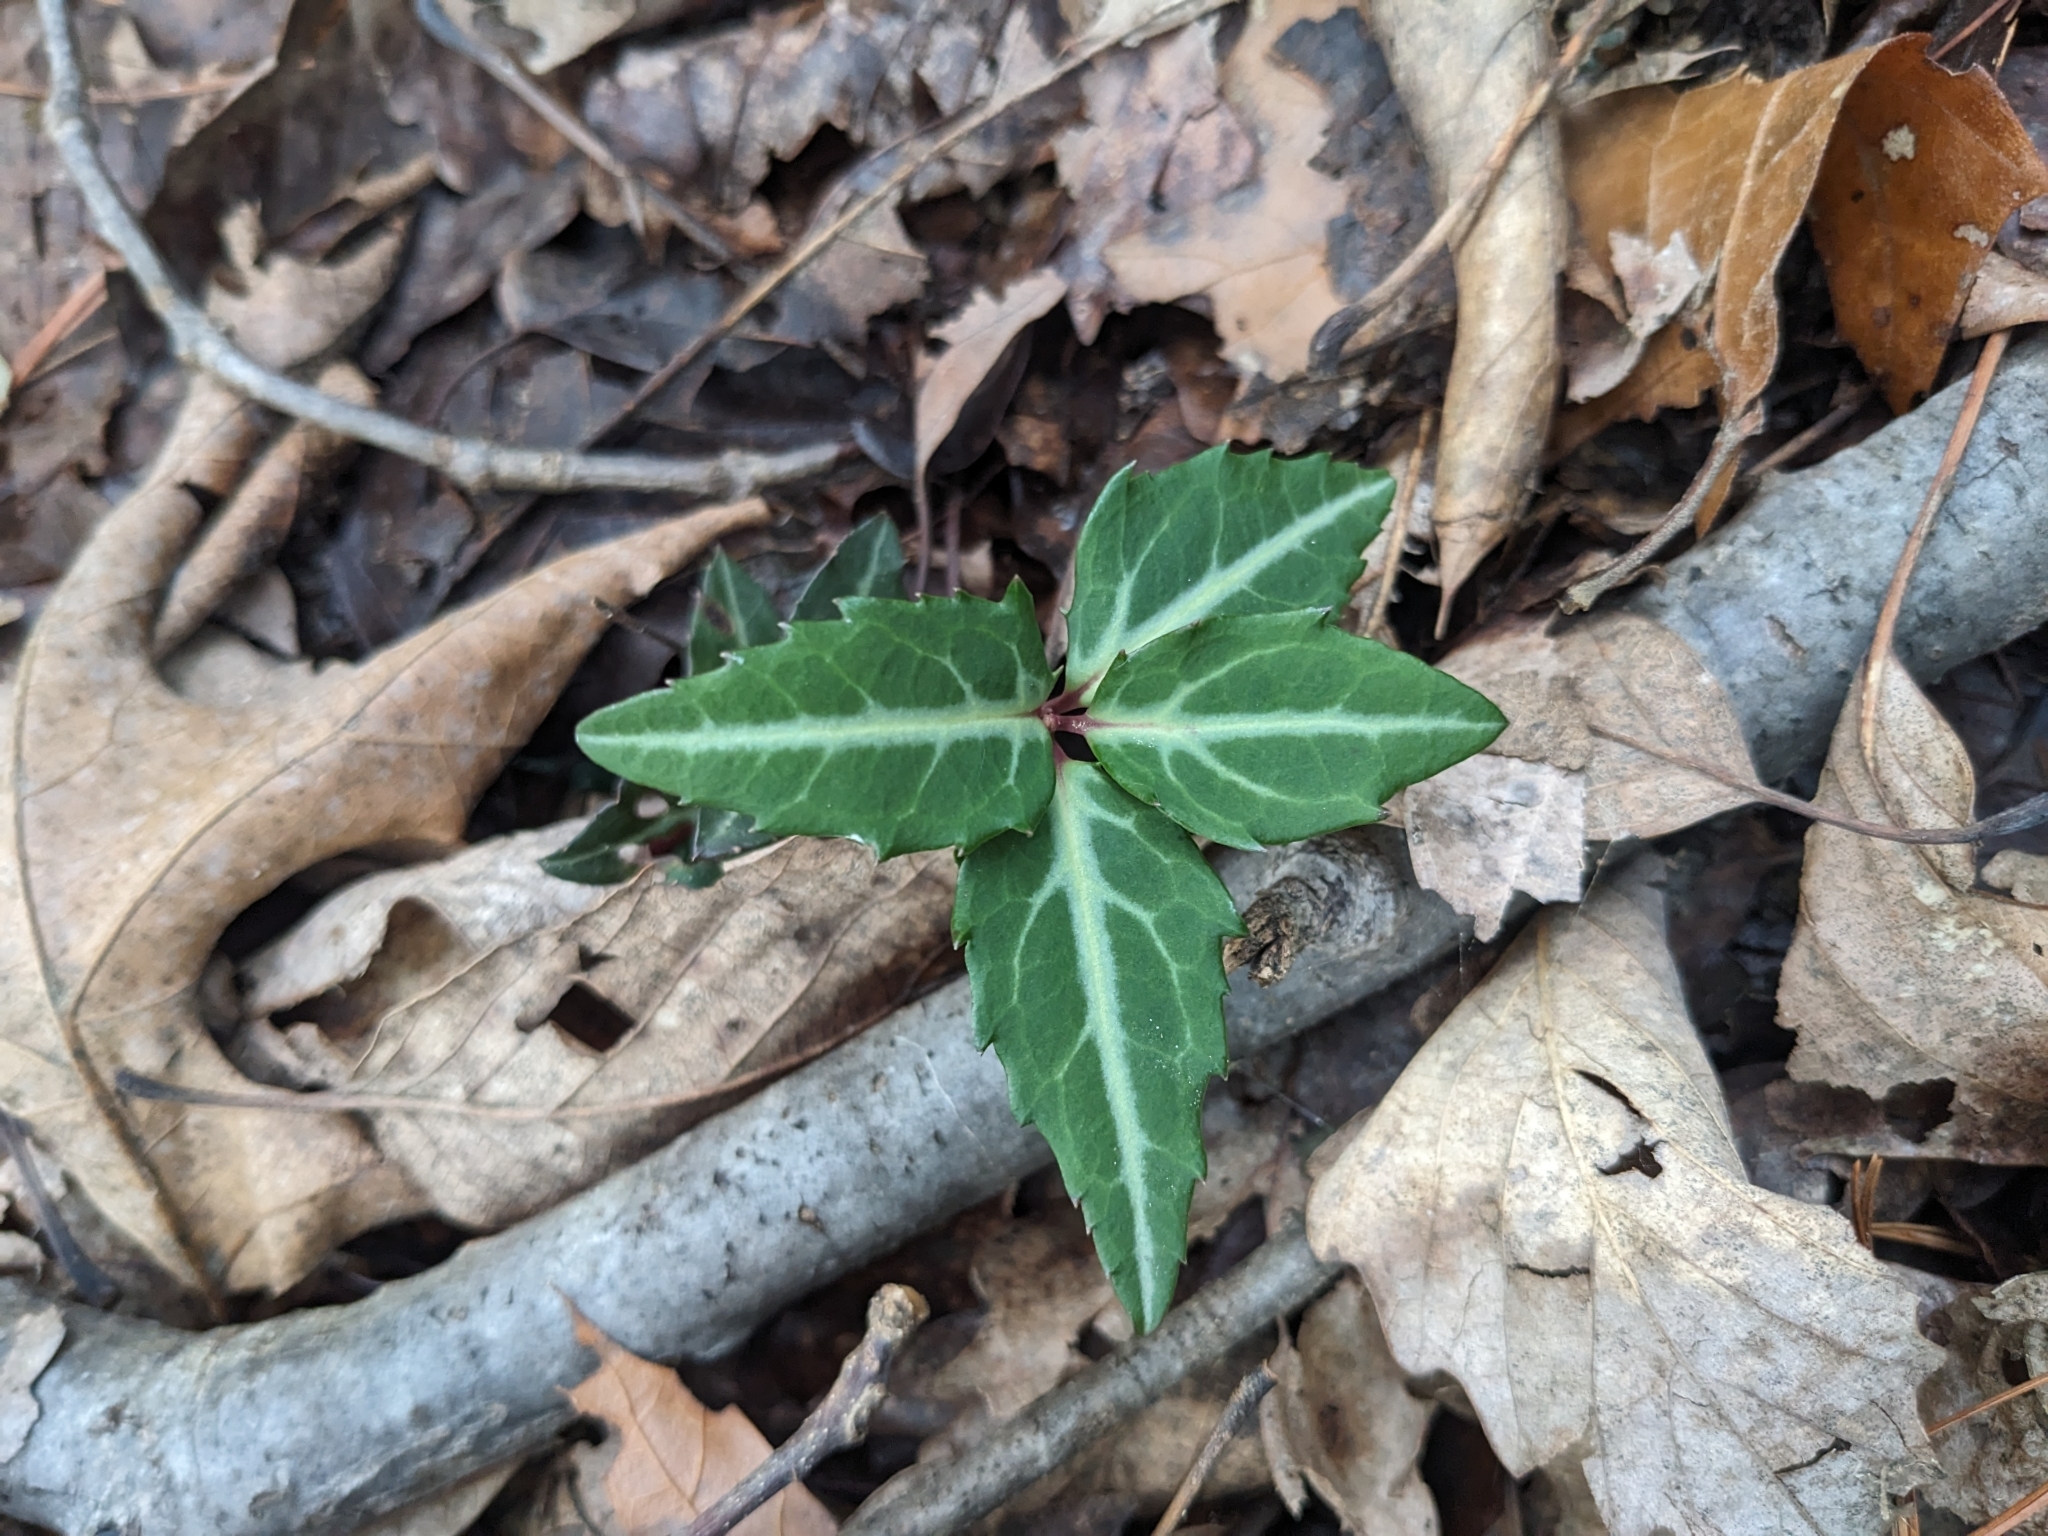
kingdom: Plantae
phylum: Tracheophyta
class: Magnoliopsida
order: Ericales
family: Ericaceae
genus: Chimaphila
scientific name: Chimaphila maculata
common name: Spotted pipsissewa
